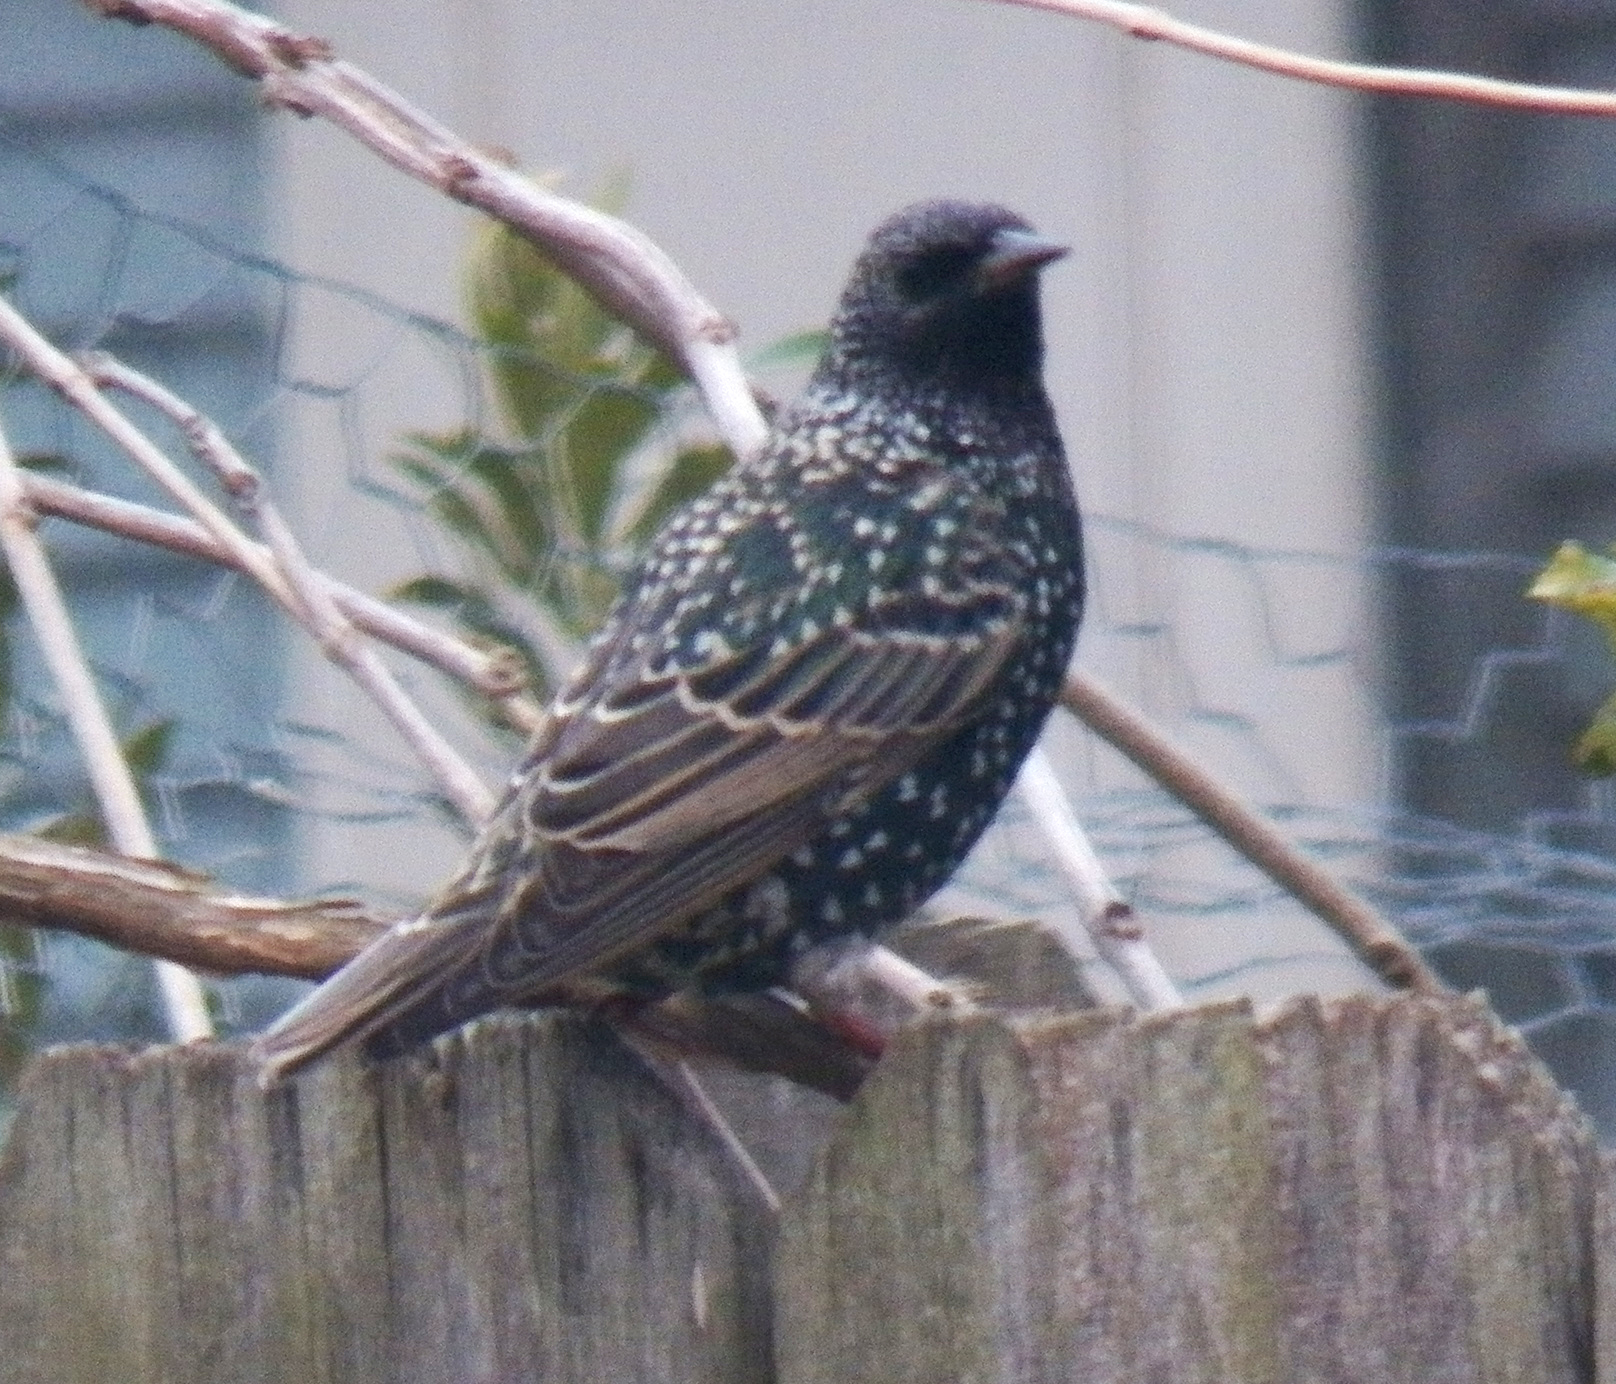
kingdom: Animalia
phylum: Chordata
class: Aves
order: Passeriformes
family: Sturnidae
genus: Sturnus
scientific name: Sturnus vulgaris
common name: Common starling
